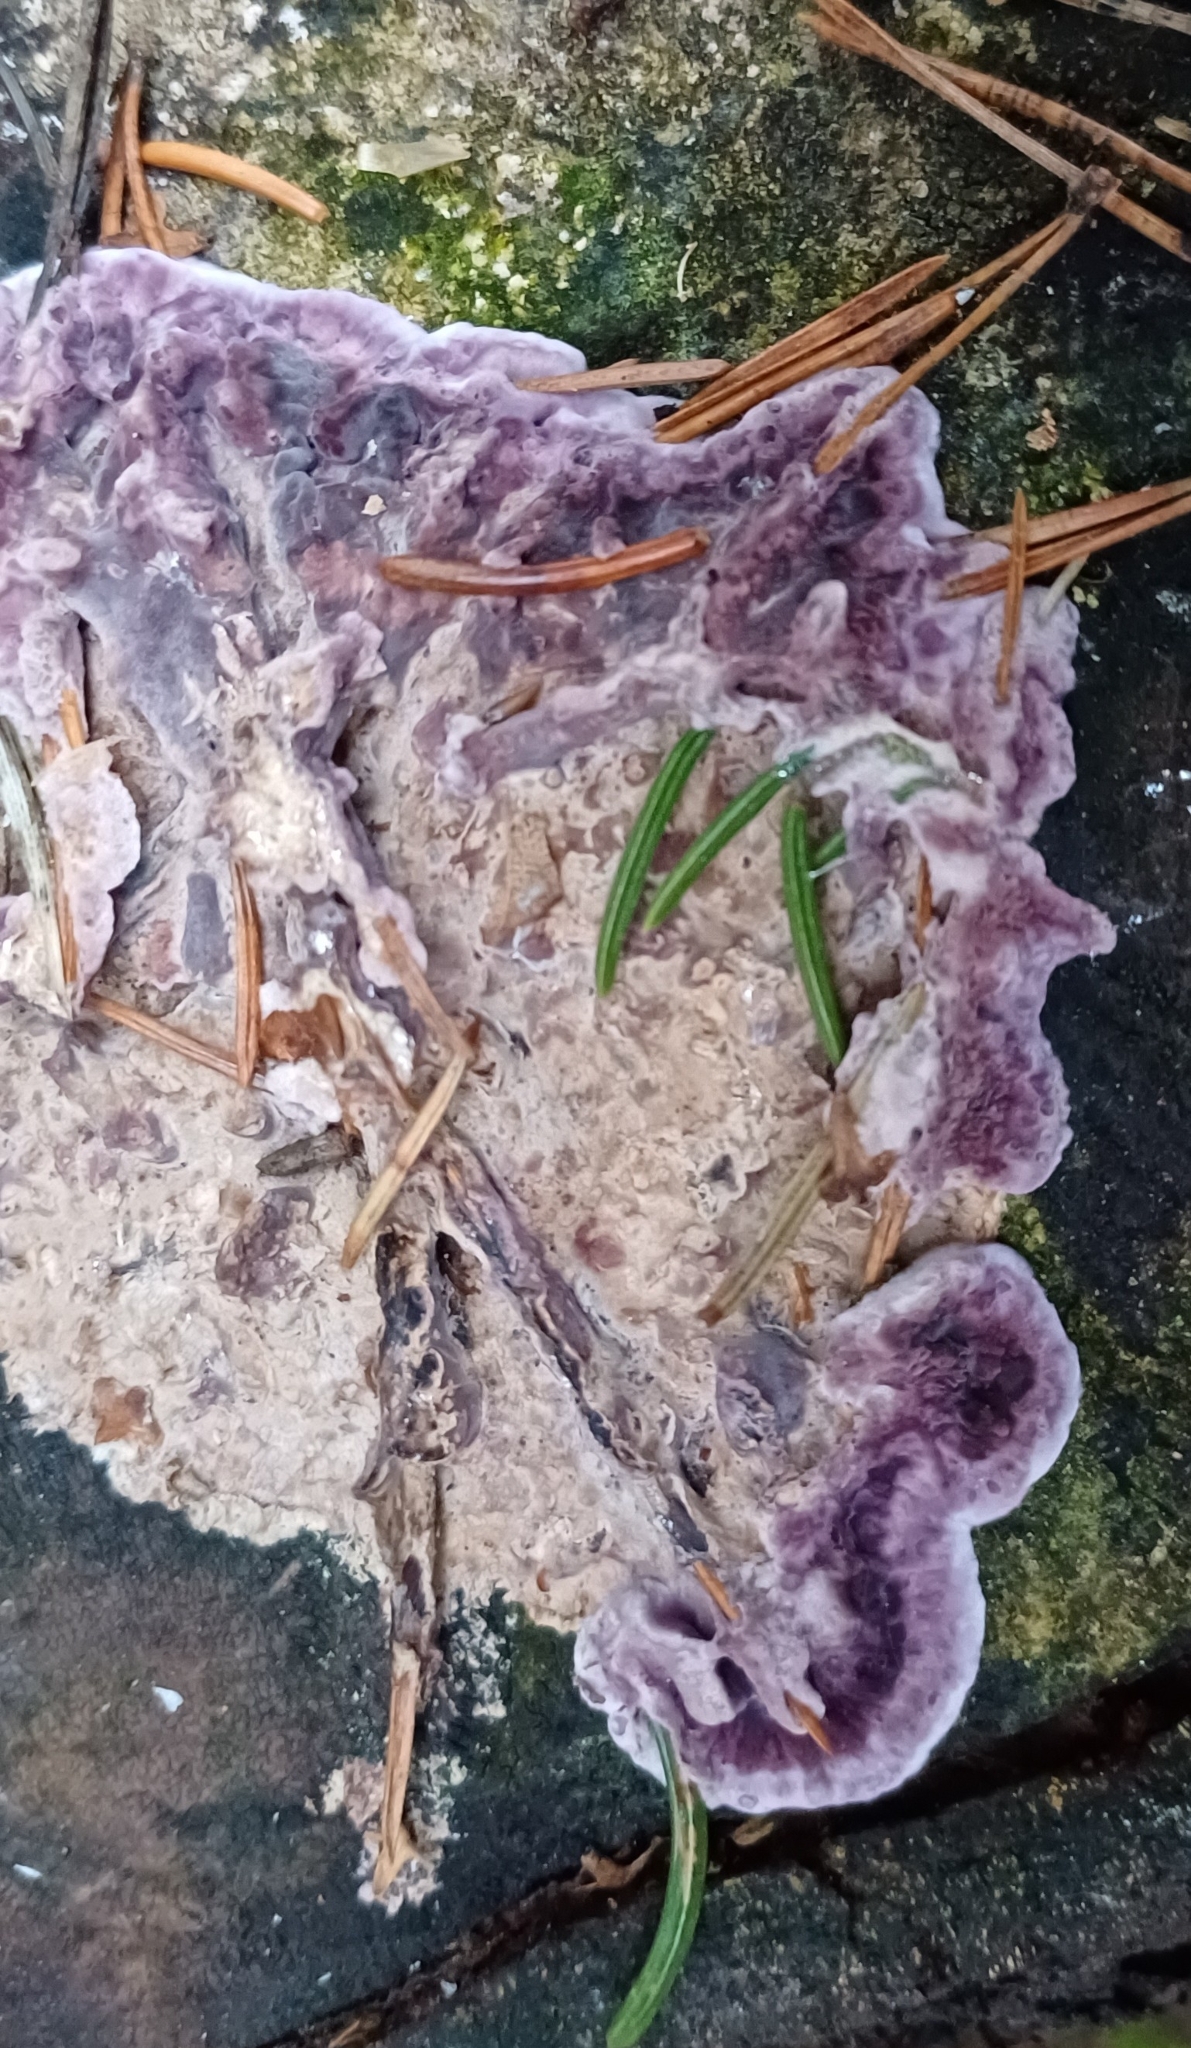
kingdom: Fungi
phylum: Basidiomycota
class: Agaricomycetes
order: Agaricales
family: Cyphellaceae
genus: Chondrostereum
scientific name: Chondrostereum purpureum
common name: Silver leaf disease
